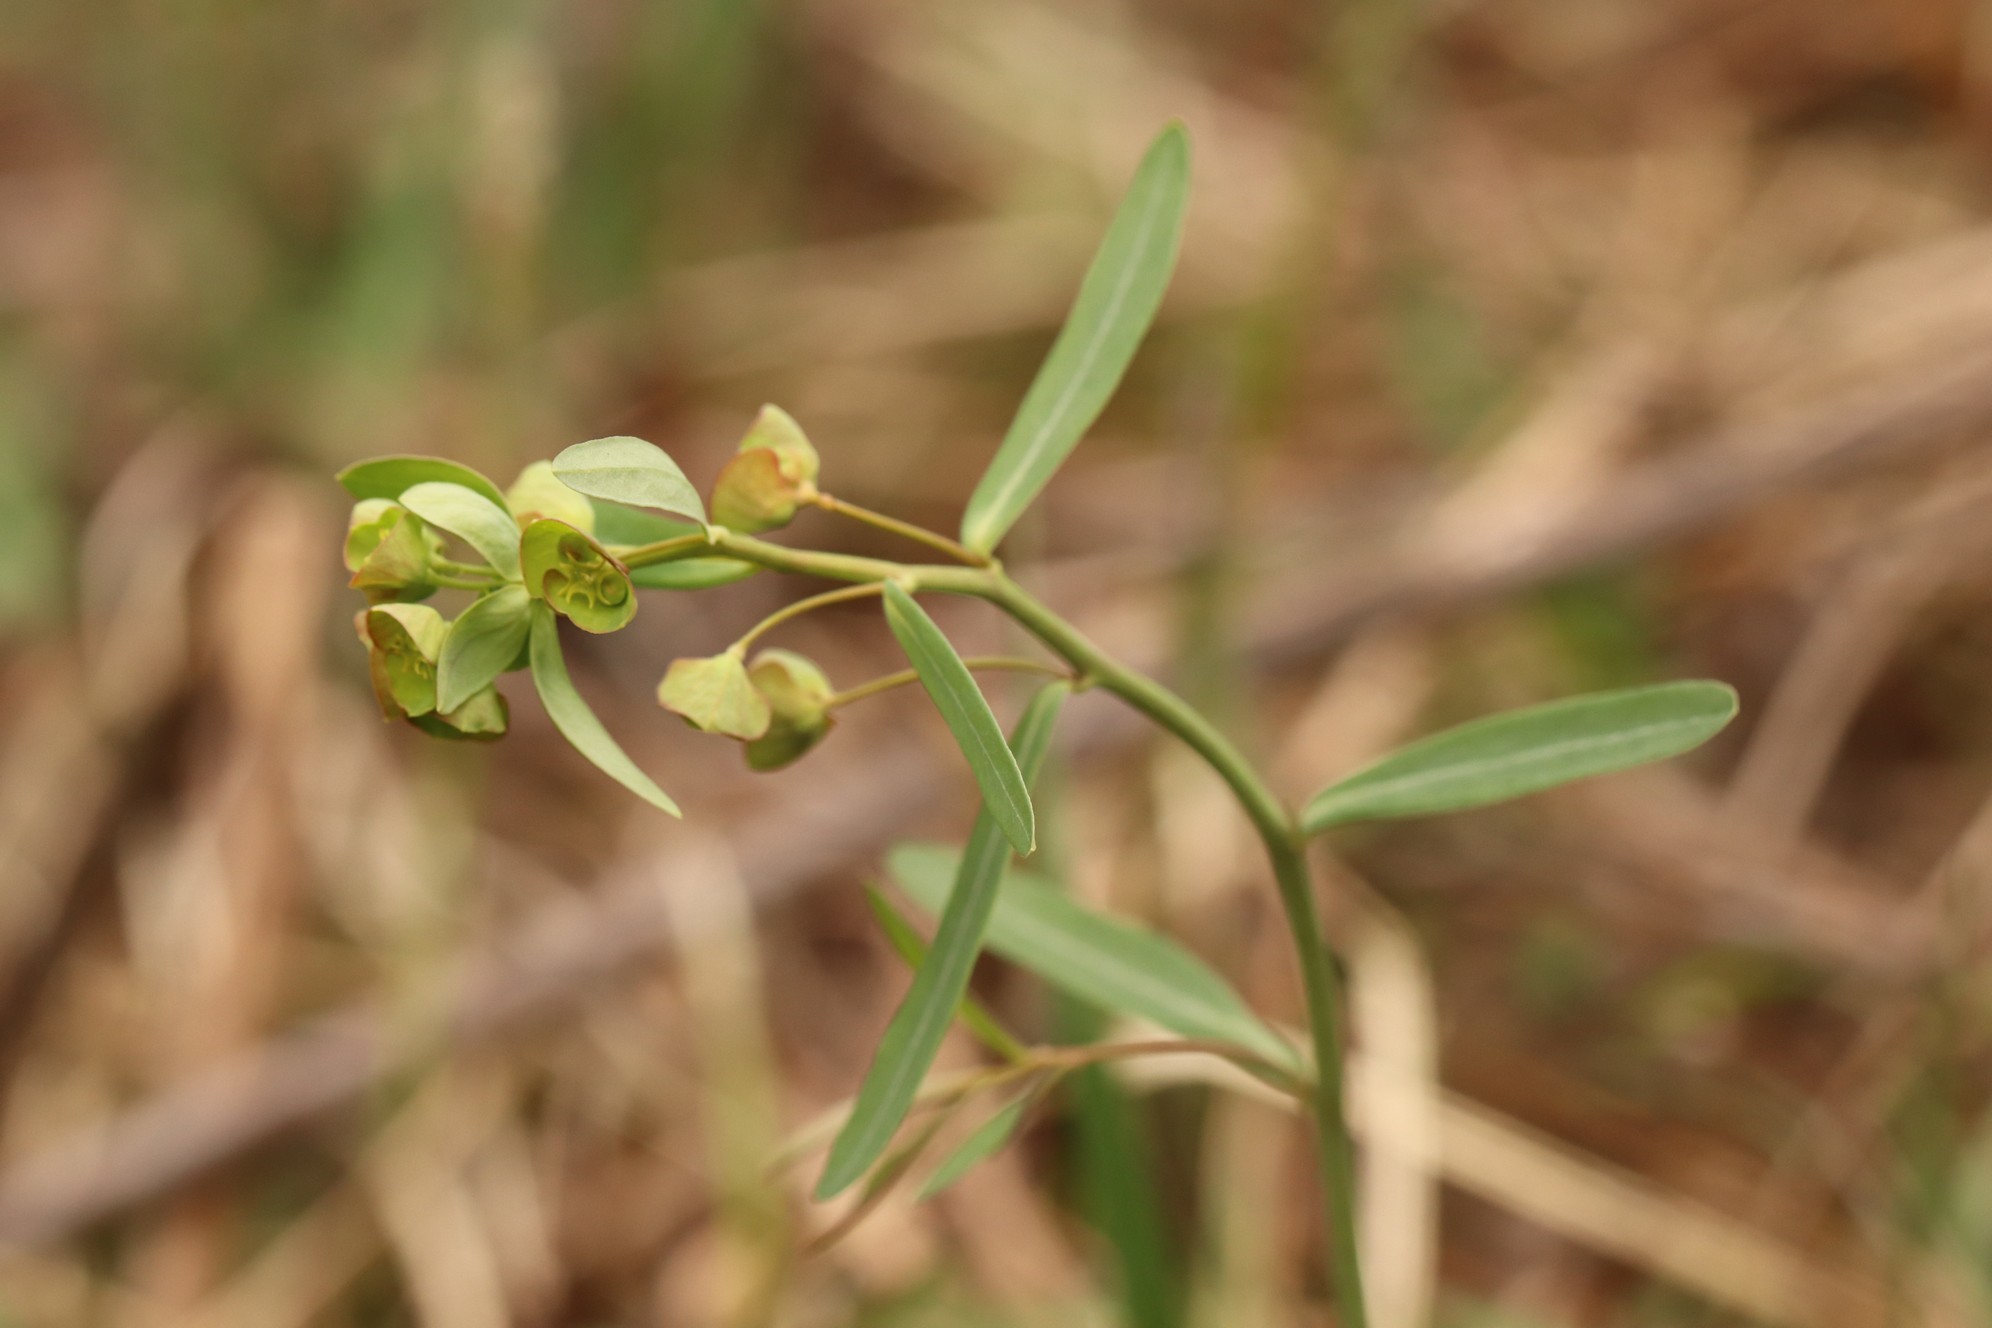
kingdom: Plantae
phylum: Tracheophyta
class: Magnoliopsida
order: Malpighiales
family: Euphorbiaceae
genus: Euphorbia
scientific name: Euphorbia virgata
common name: Leafy spurge
